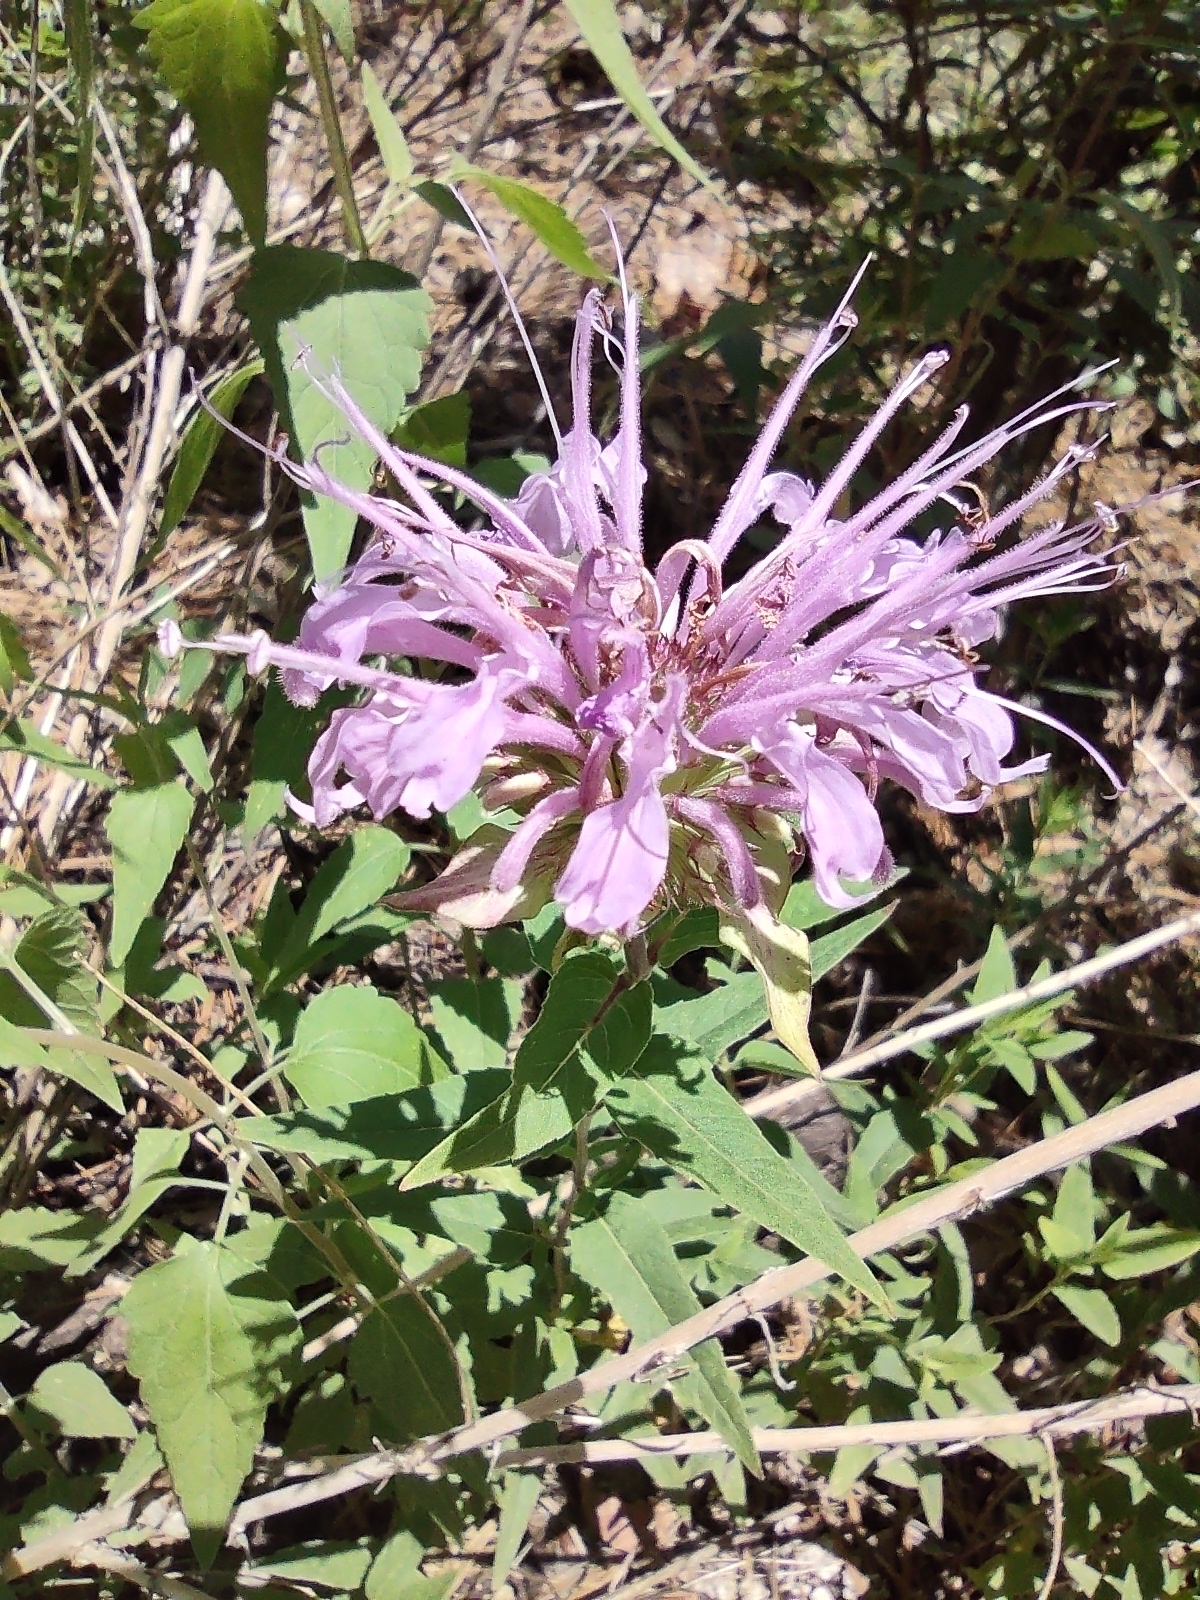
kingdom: Plantae
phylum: Tracheophyta
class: Magnoliopsida
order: Lamiales
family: Lamiaceae
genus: Monarda
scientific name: Monarda fistulosa
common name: Purple beebalm
